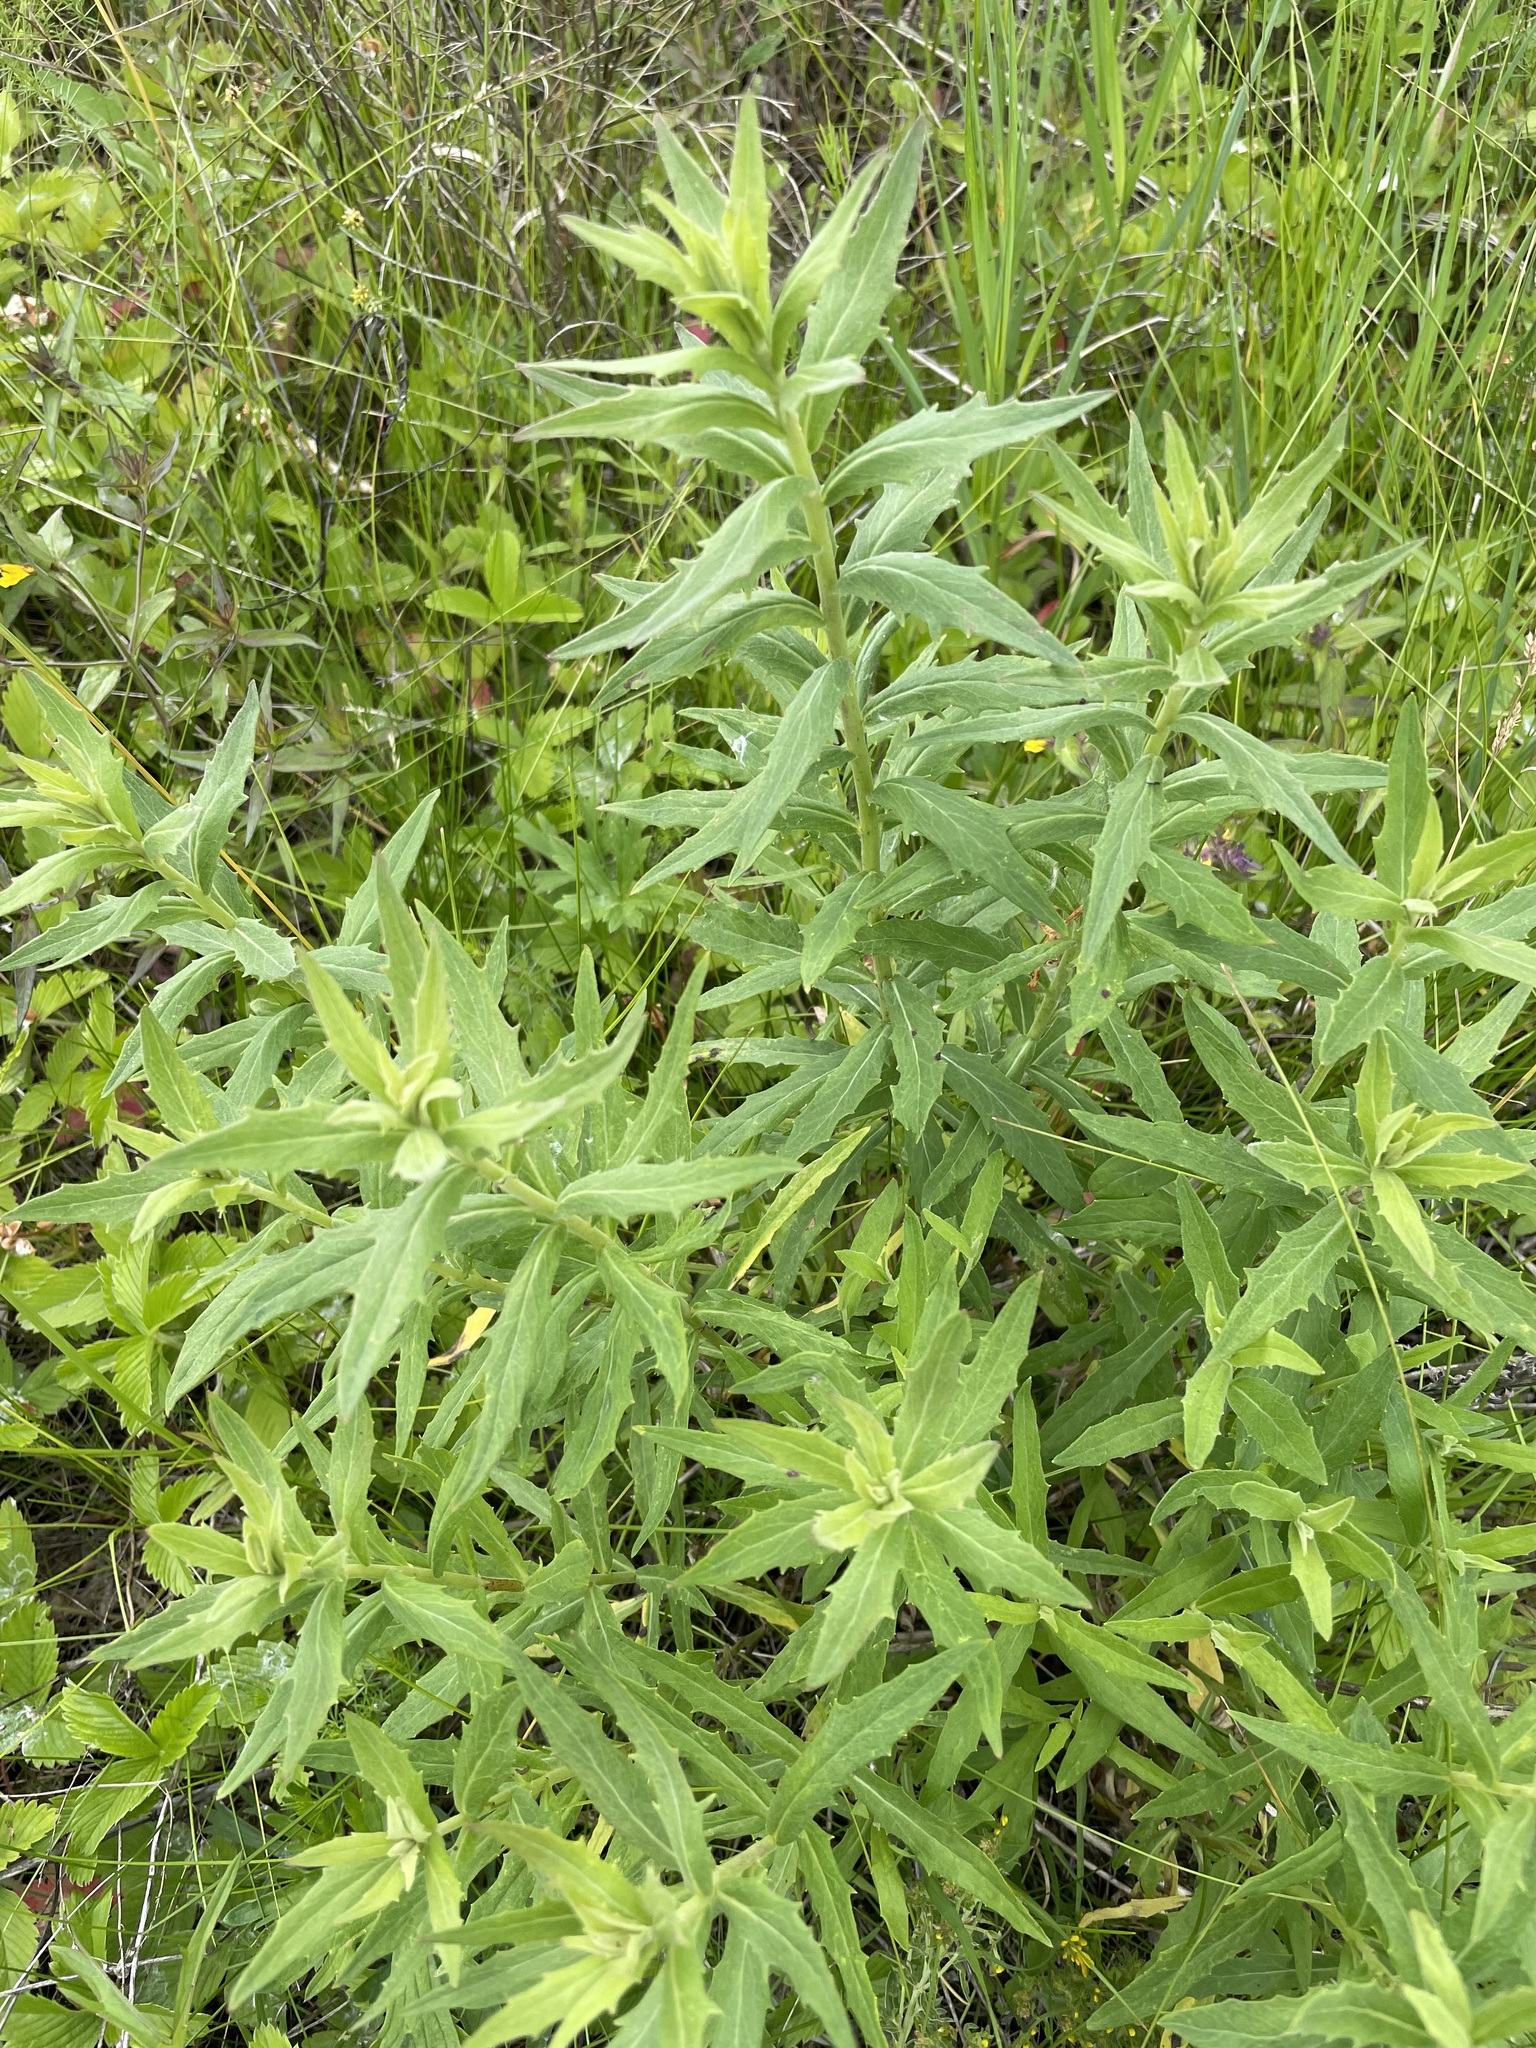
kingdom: Plantae
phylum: Tracheophyta
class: Magnoliopsida
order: Asterales
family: Asteraceae
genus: Hieracium
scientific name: Hieracium umbellatum
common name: Northern hawkweed
